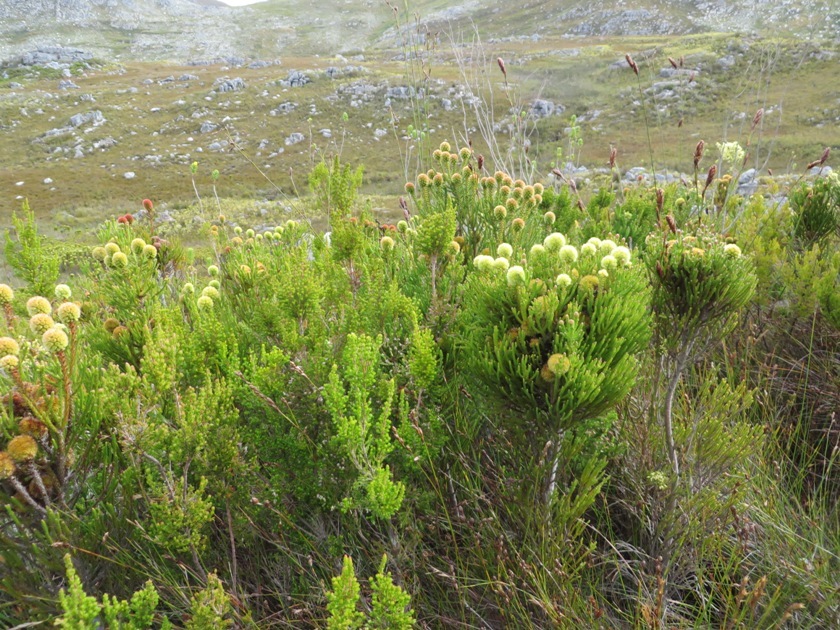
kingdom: Plantae
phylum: Tracheophyta
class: Magnoliopsida
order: Bruniales
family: Bruniaceae
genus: Brunia
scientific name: Brunia fragarioides
